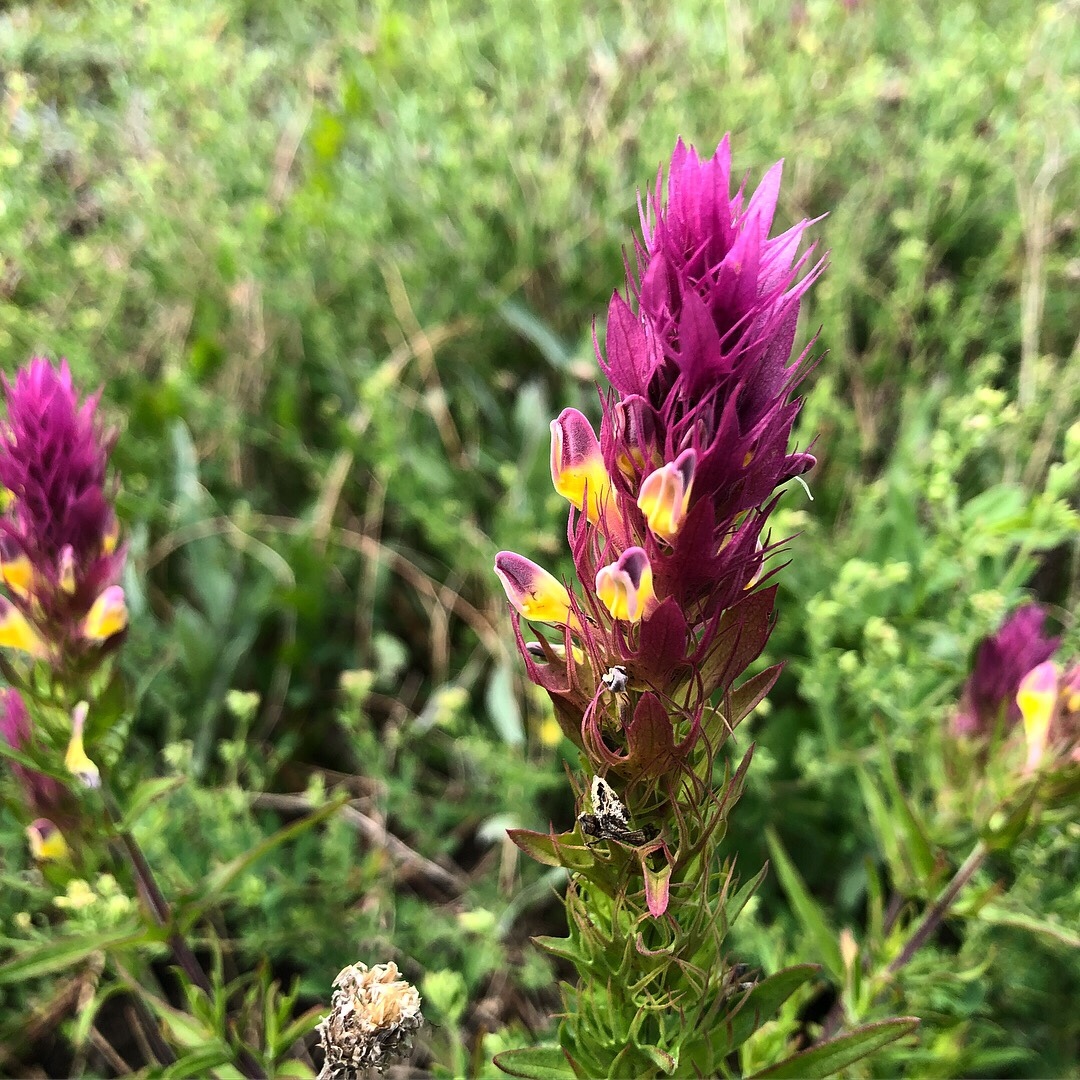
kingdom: Plantae
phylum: Tracheophyta
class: Magnoliopsida
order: Lamiales
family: Orobanchaceae
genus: Melampyrum
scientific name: Melampyrum arvense
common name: Field cow-wheat
